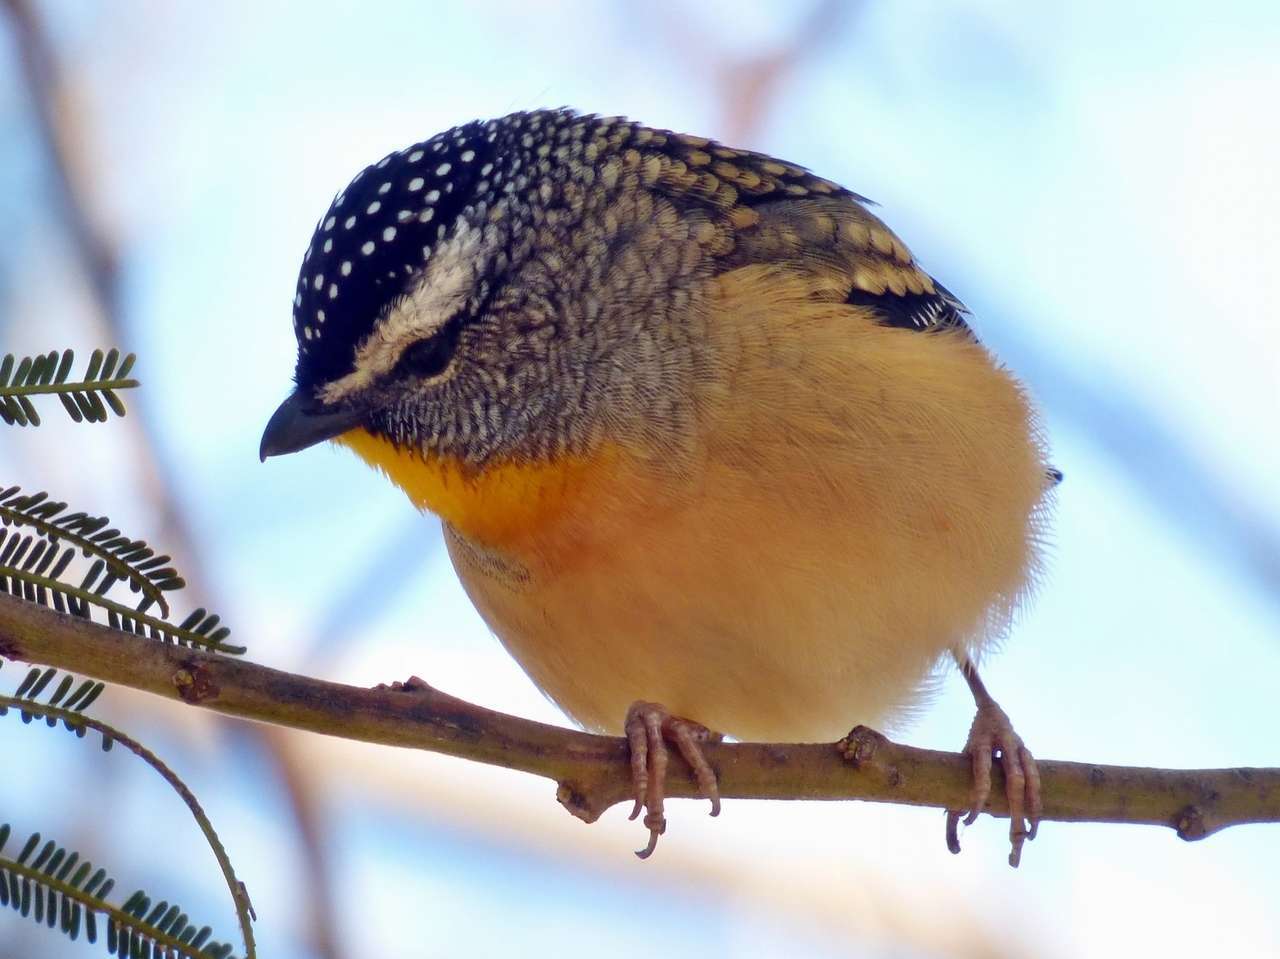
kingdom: Animalia
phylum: Chordata
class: Aves
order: Passeriformes
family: Pardalotidae
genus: Pardalotus
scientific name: Pardalotus punctatus
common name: Spotted pardalote
